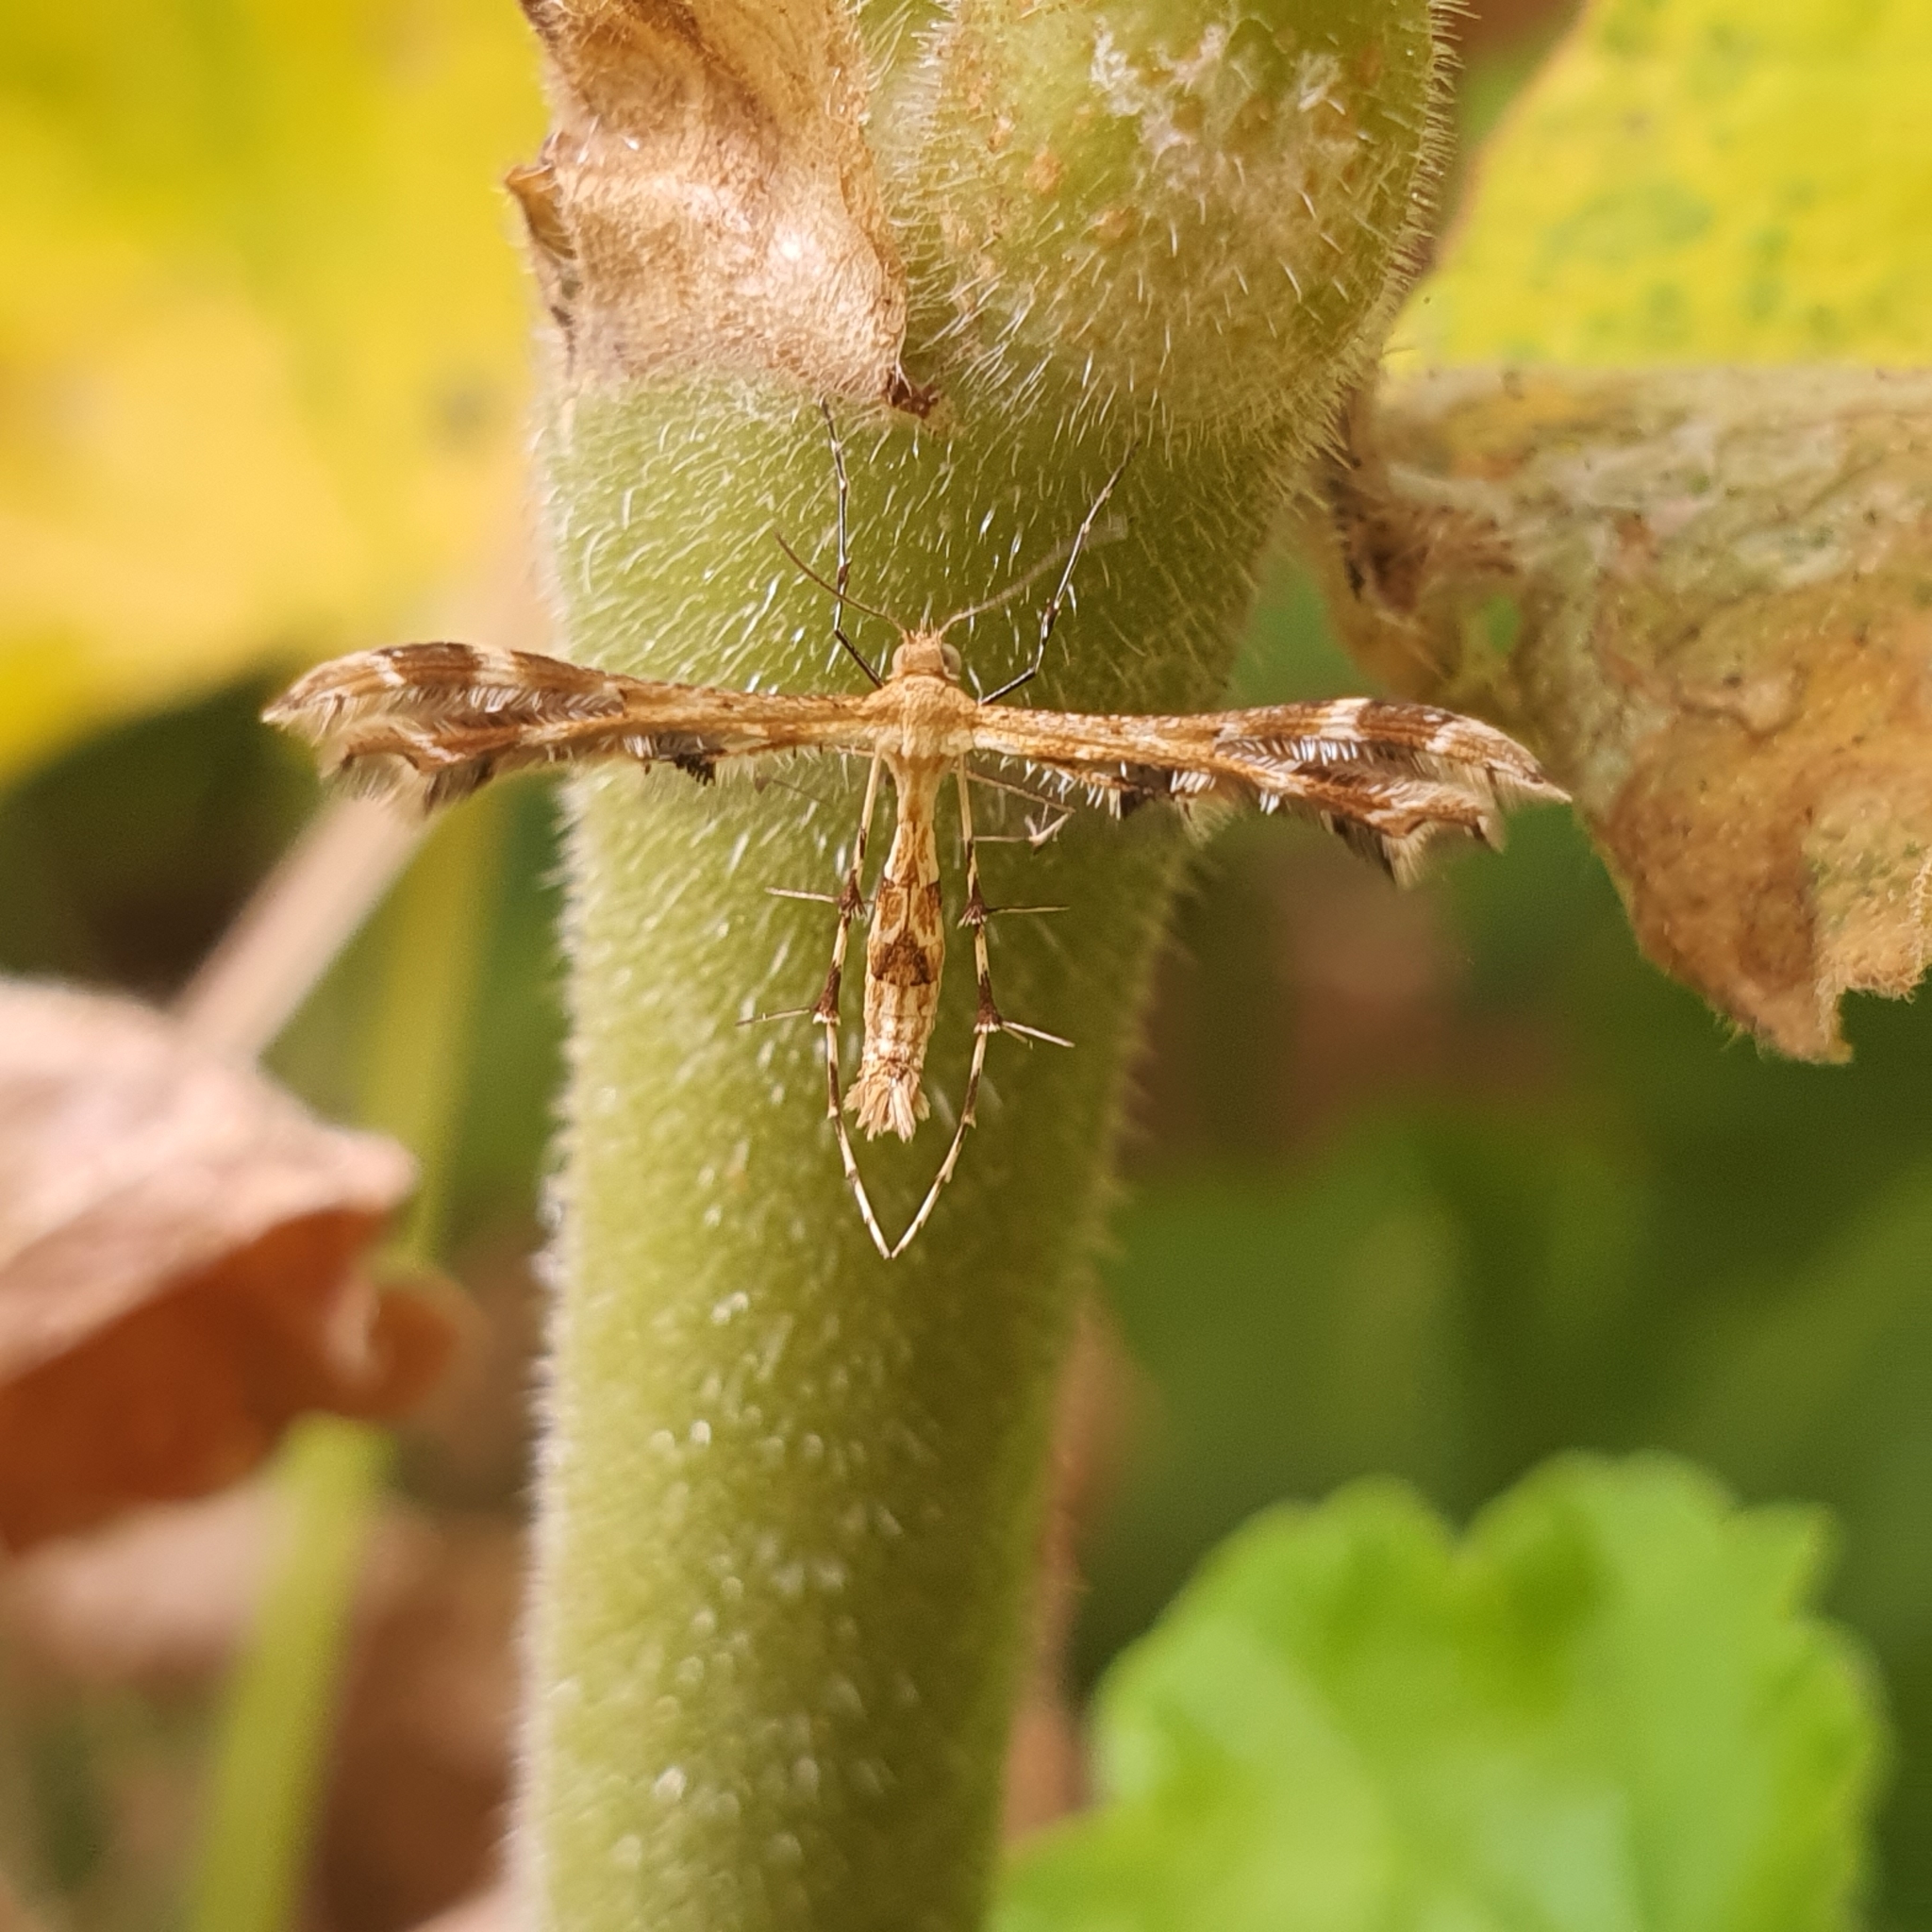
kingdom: Animalia
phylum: Arthropoda
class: Insecta
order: Lepidoptera
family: Pterophoridae
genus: Sphenarches
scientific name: Sphenarches anisodactylus
